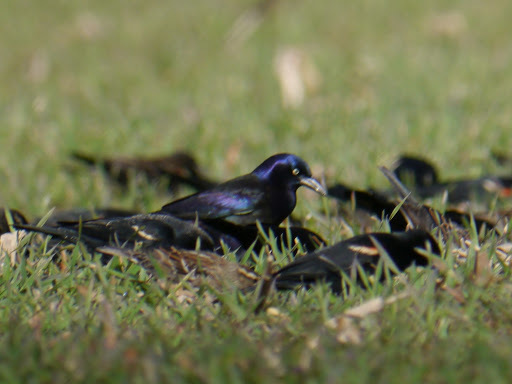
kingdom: Animalia
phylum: Chordata
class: Aves
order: Passeriformes
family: Icteridae
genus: Quiscalus
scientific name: Quiscalus quiscula
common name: Common grackle
